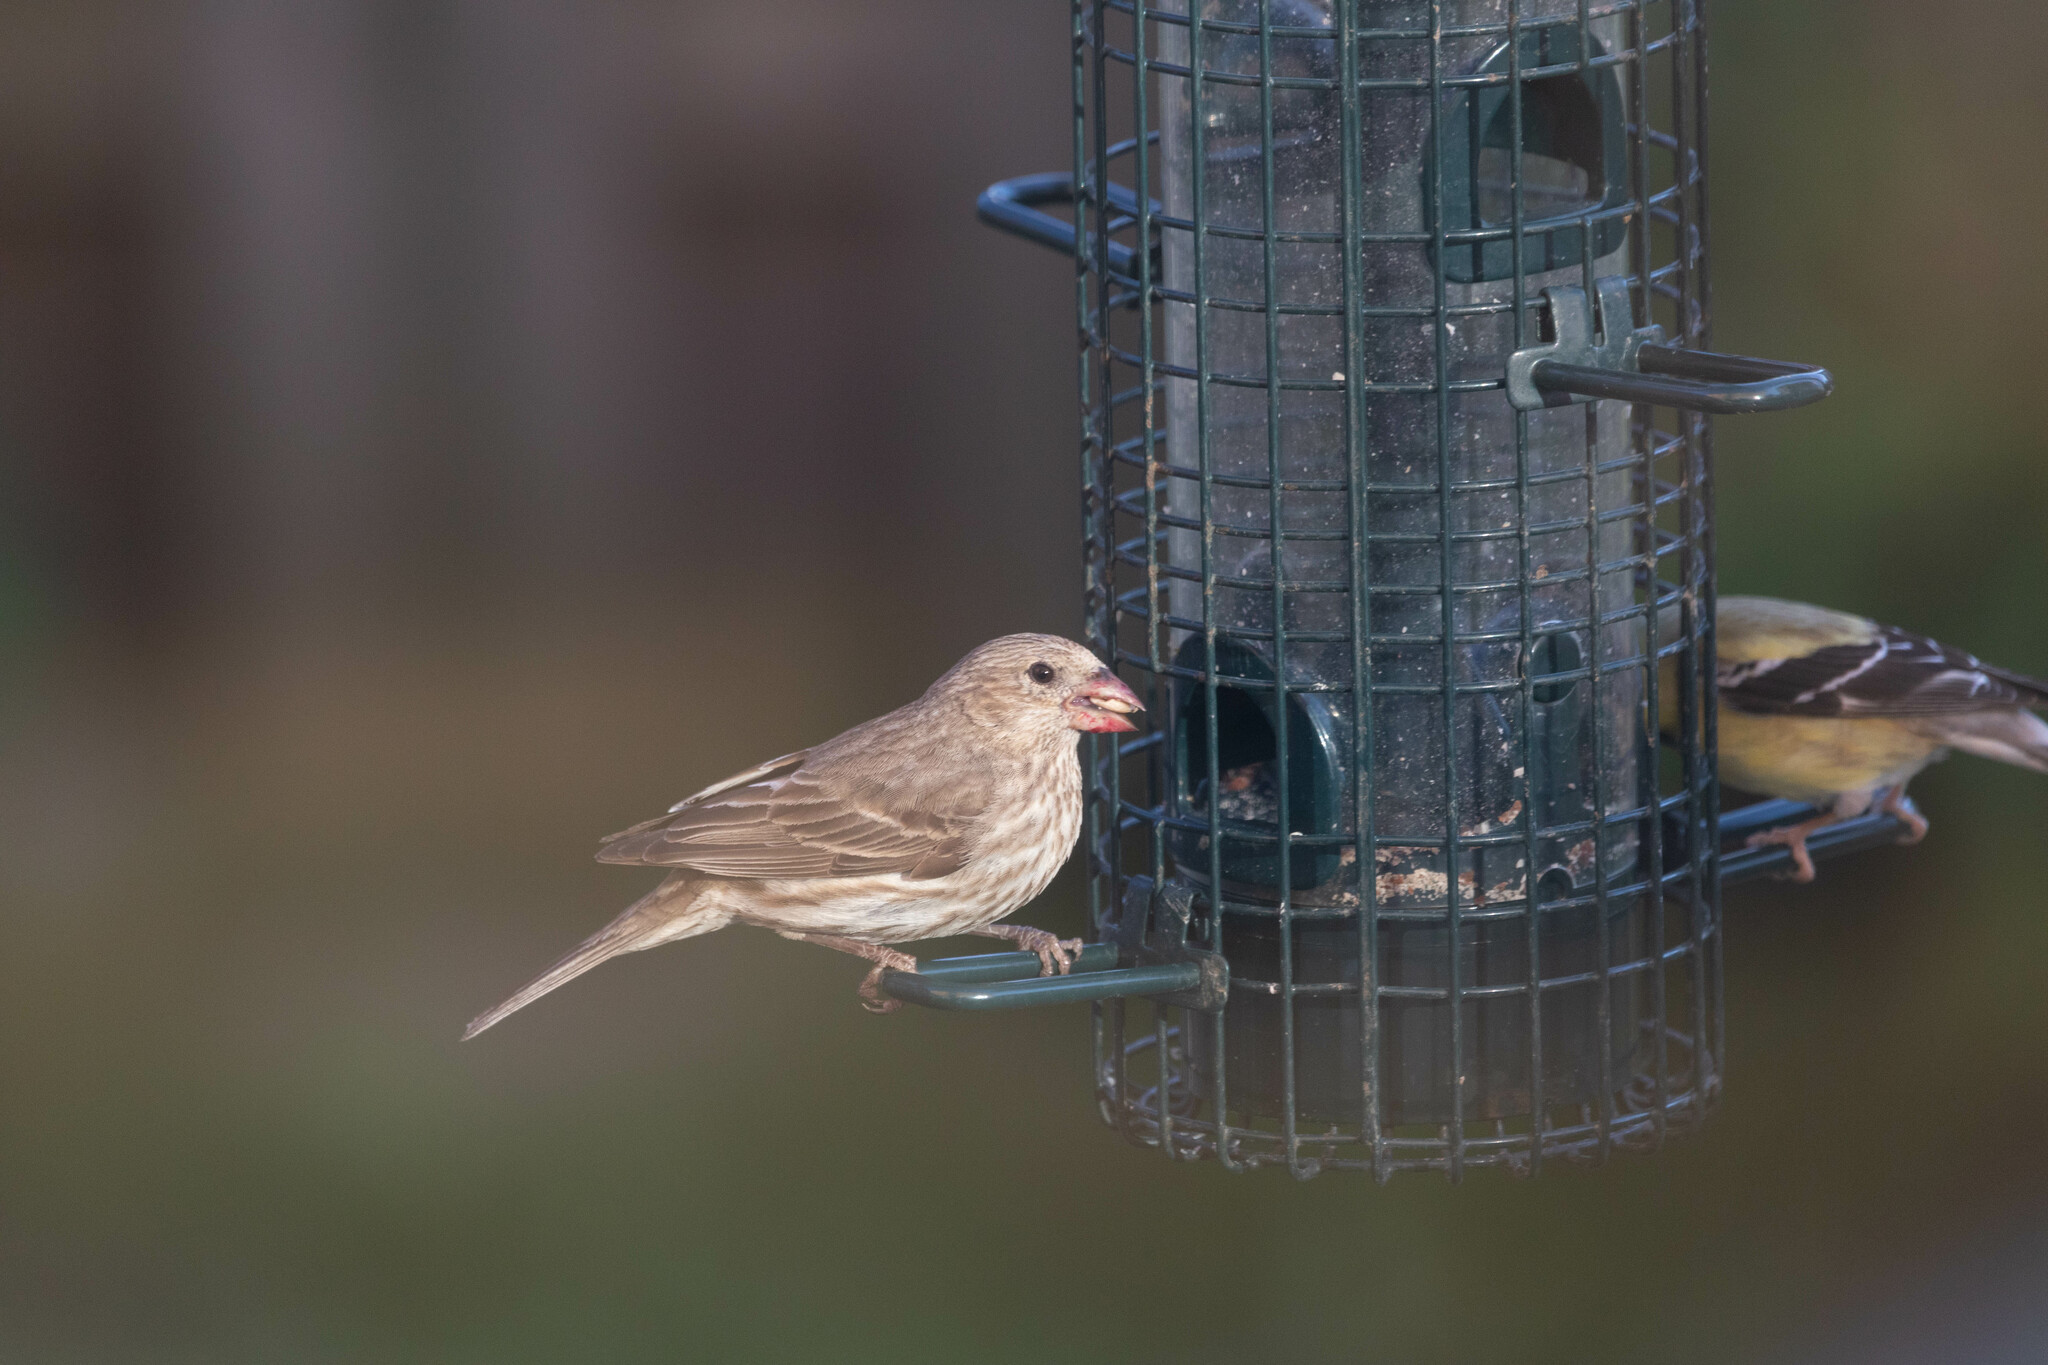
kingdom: Animalia
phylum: Chordata
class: Aves
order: Passeriformes
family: Fringillidae
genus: Haemorhous
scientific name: Haemorhous mexicanus
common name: House finch
